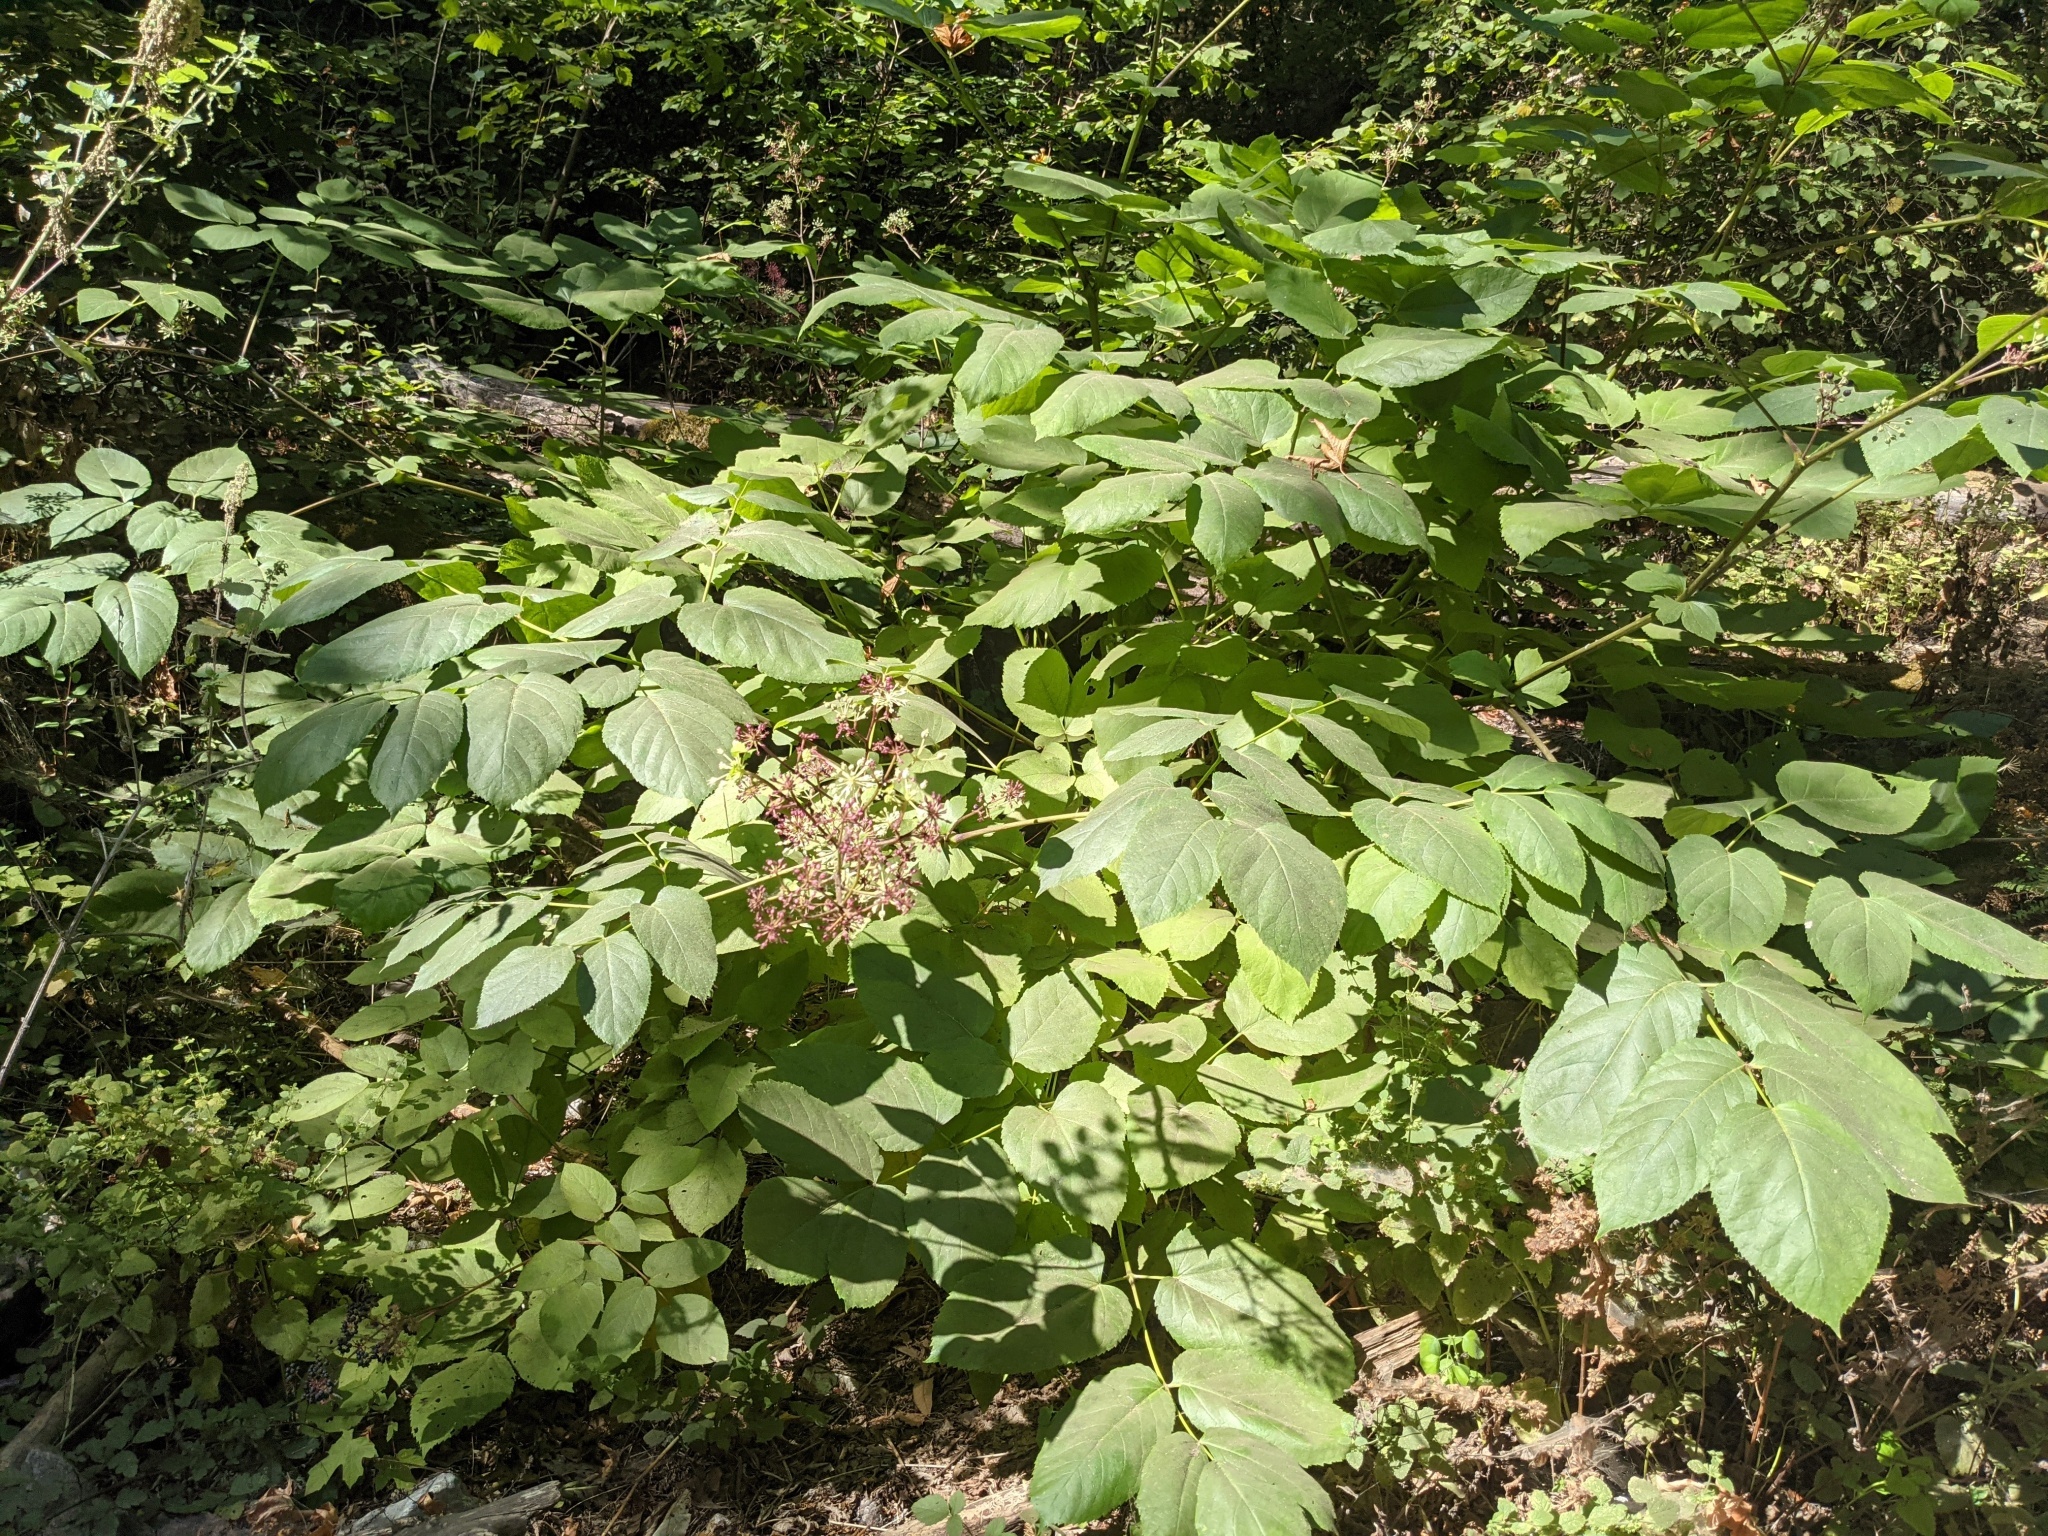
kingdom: Plantae
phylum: Tracheophyta
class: Magnoliopsida
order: Apiales
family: Araliaceae
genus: Aralia
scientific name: Aralia californica
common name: California-ginseng
